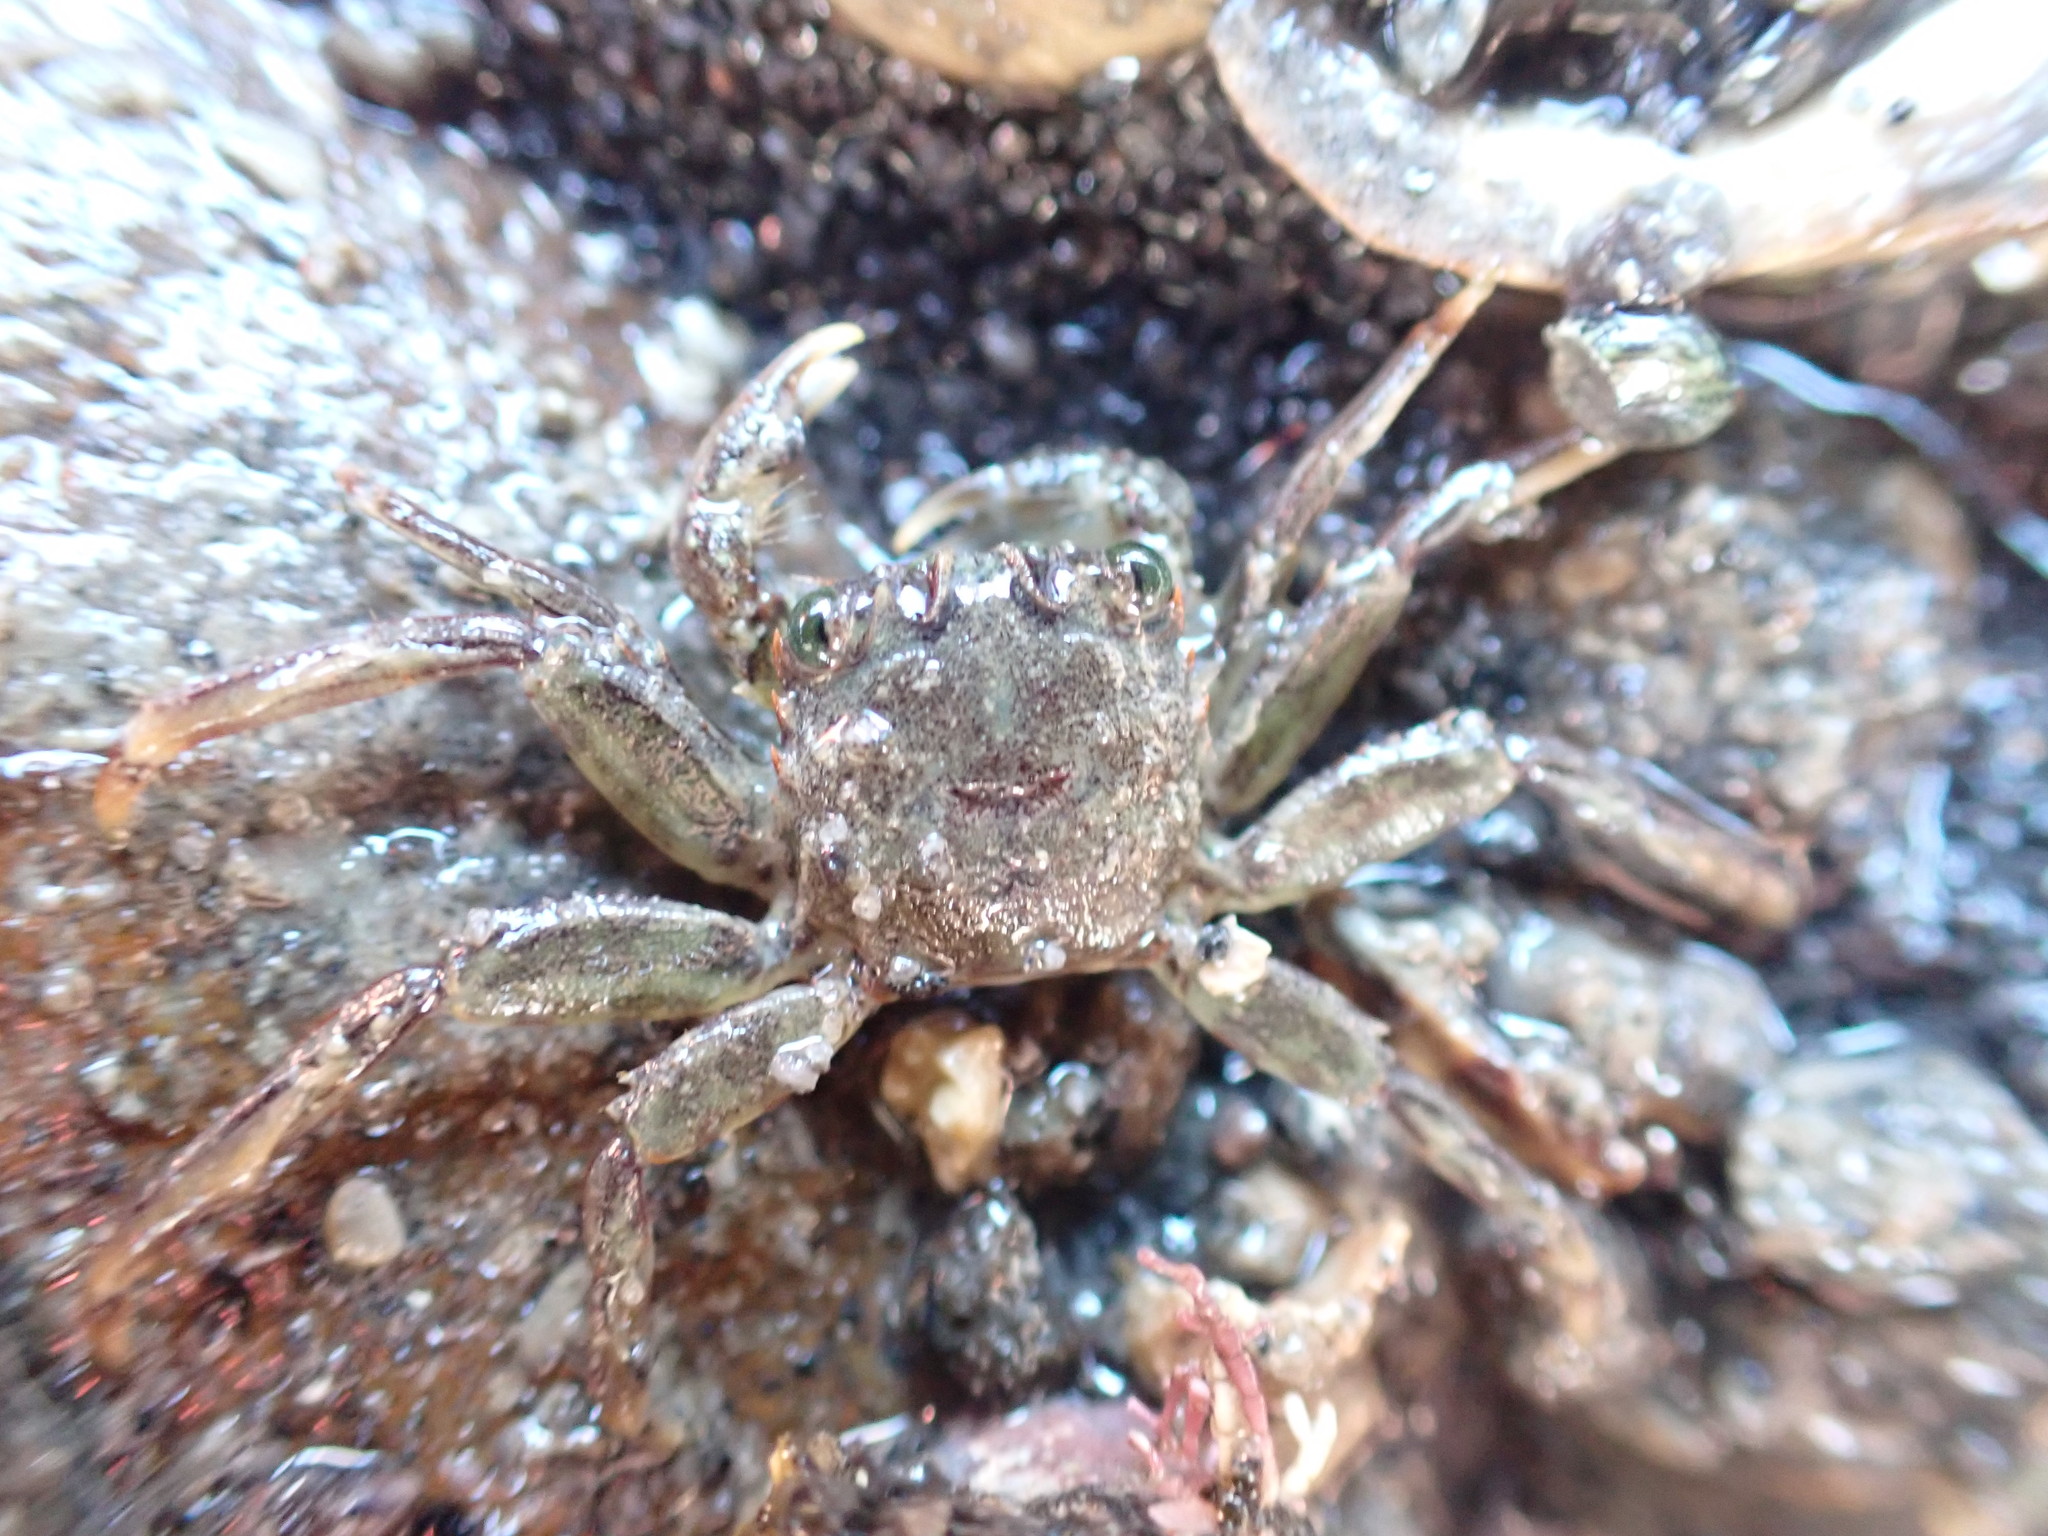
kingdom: Animalia
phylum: Arthropoda
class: Malacostraca
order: Decapoda
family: Plagusiidae
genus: Guinusia
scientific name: Guinusia chabrus
